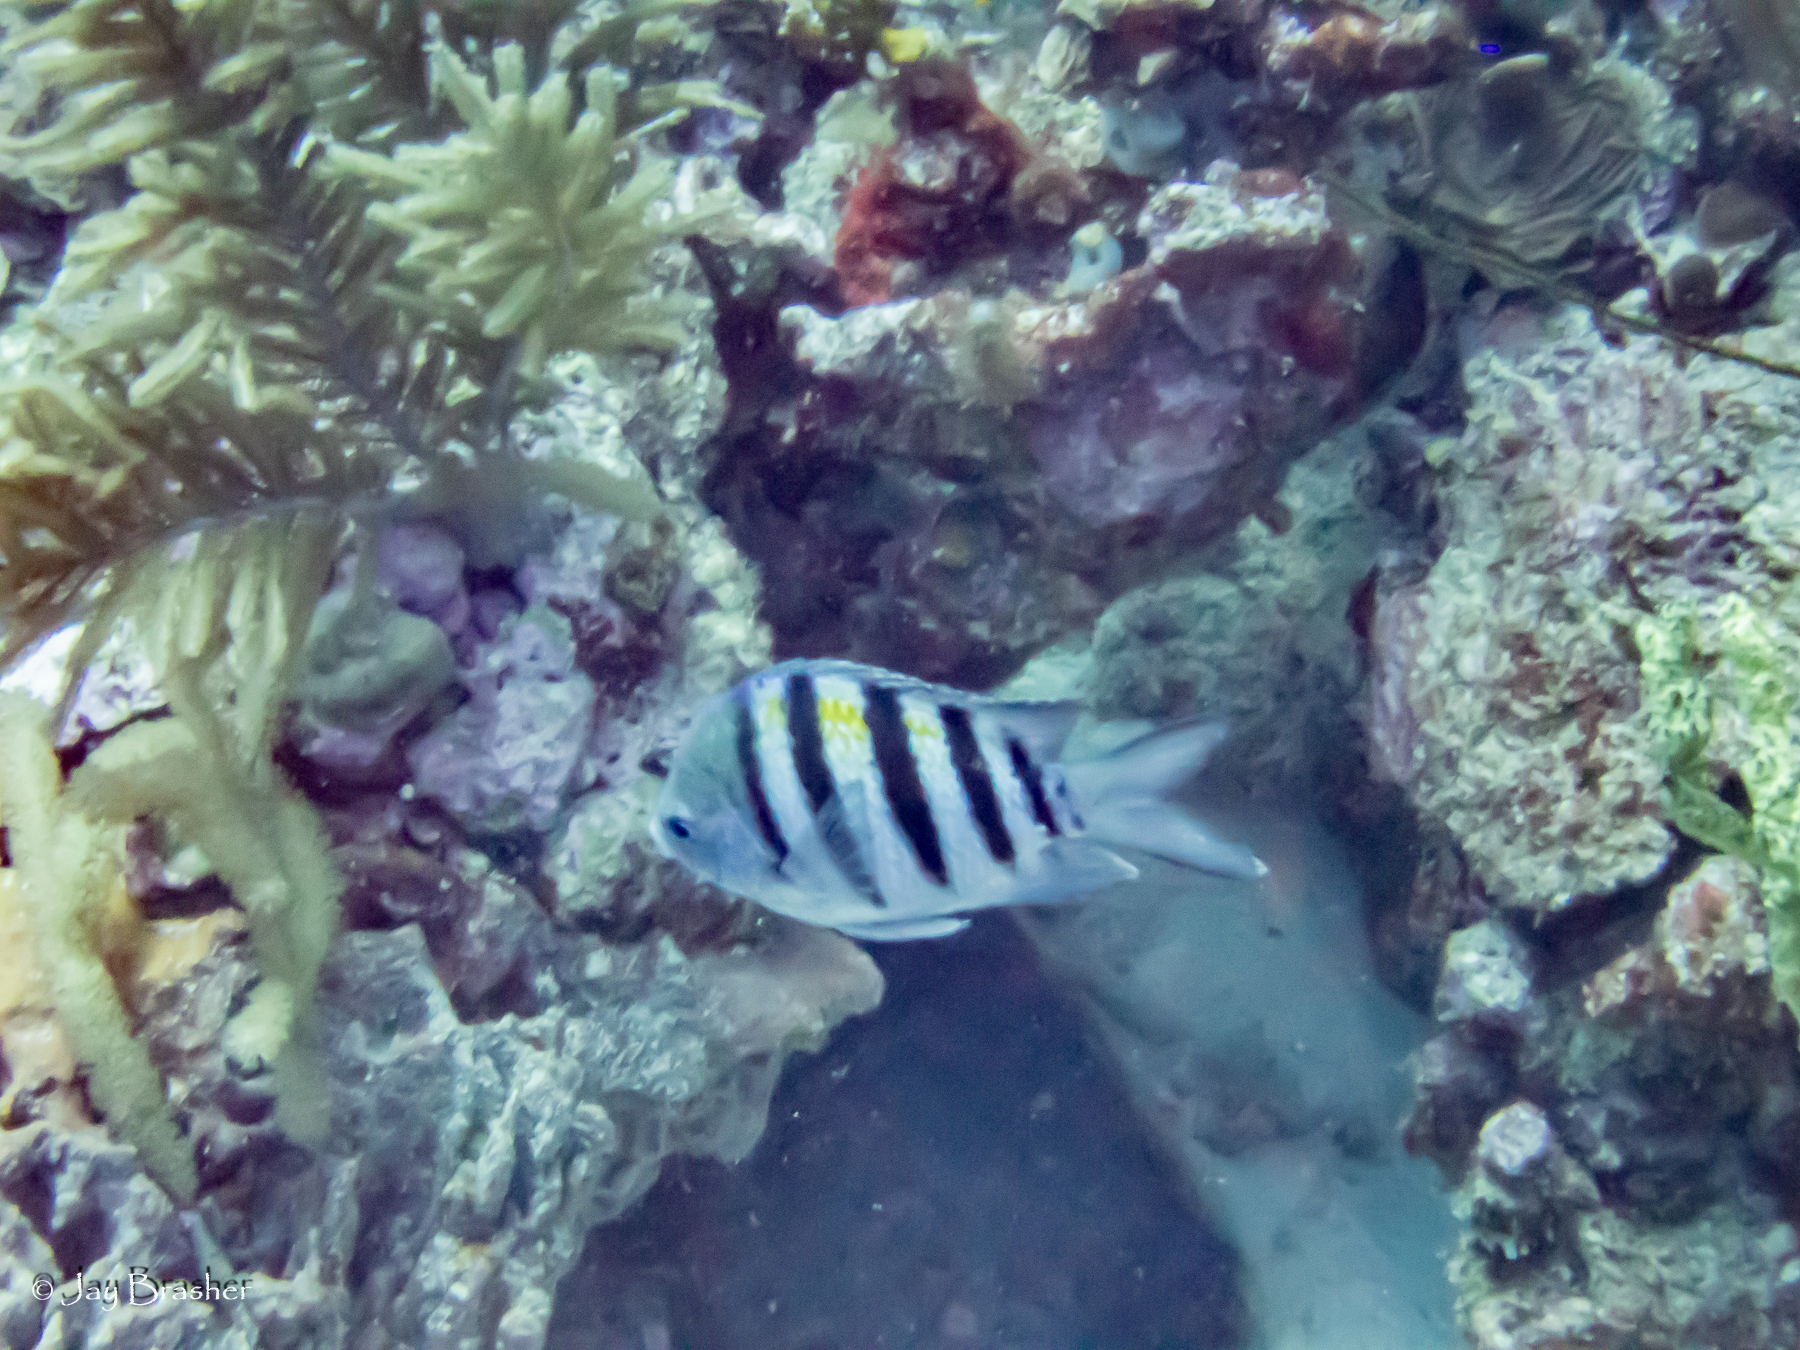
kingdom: Animalia
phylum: Chordata
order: Perciformes
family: Pomacentridae
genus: Abudefduf
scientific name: Abudefduf saxatilis
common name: Sergeant major
